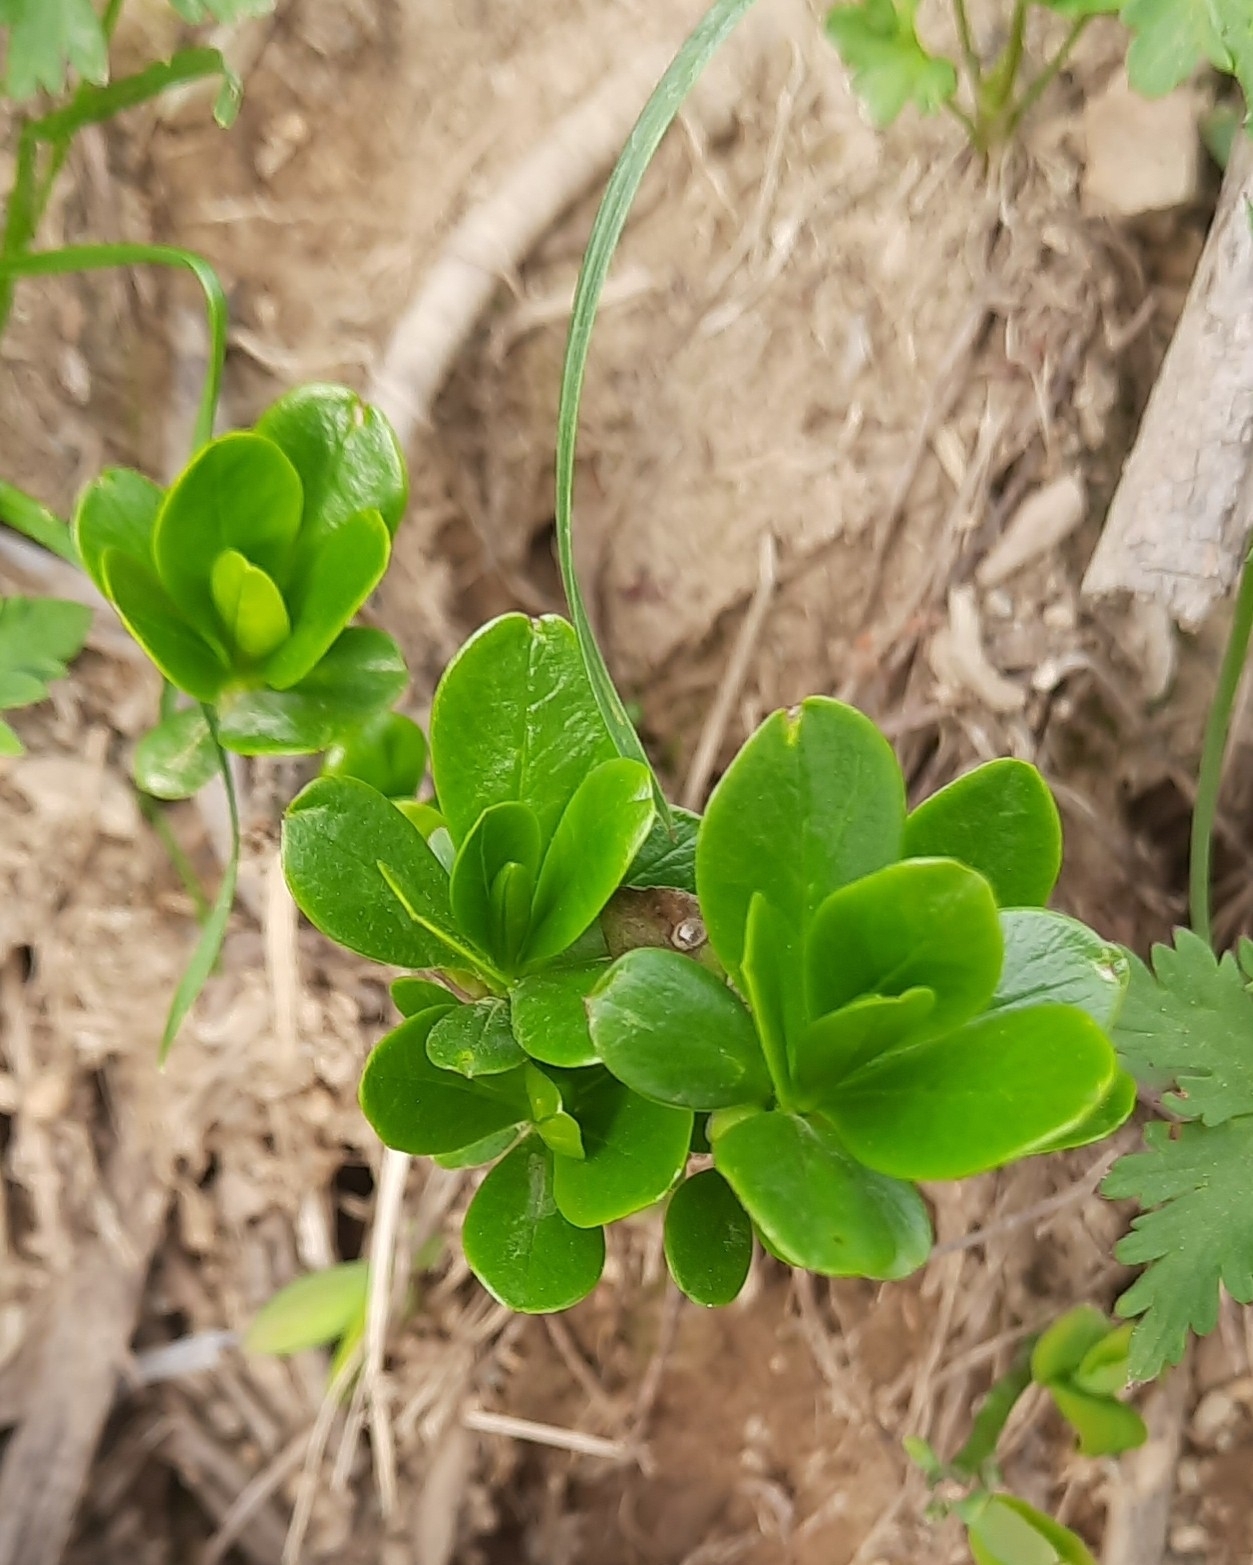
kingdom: Plantae
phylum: Tracheophyta
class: Magnoliopsida
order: Ericales
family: Ericaceae
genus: Vaccinium
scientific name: Vaccinium vitis-idaea
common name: Cowberry
